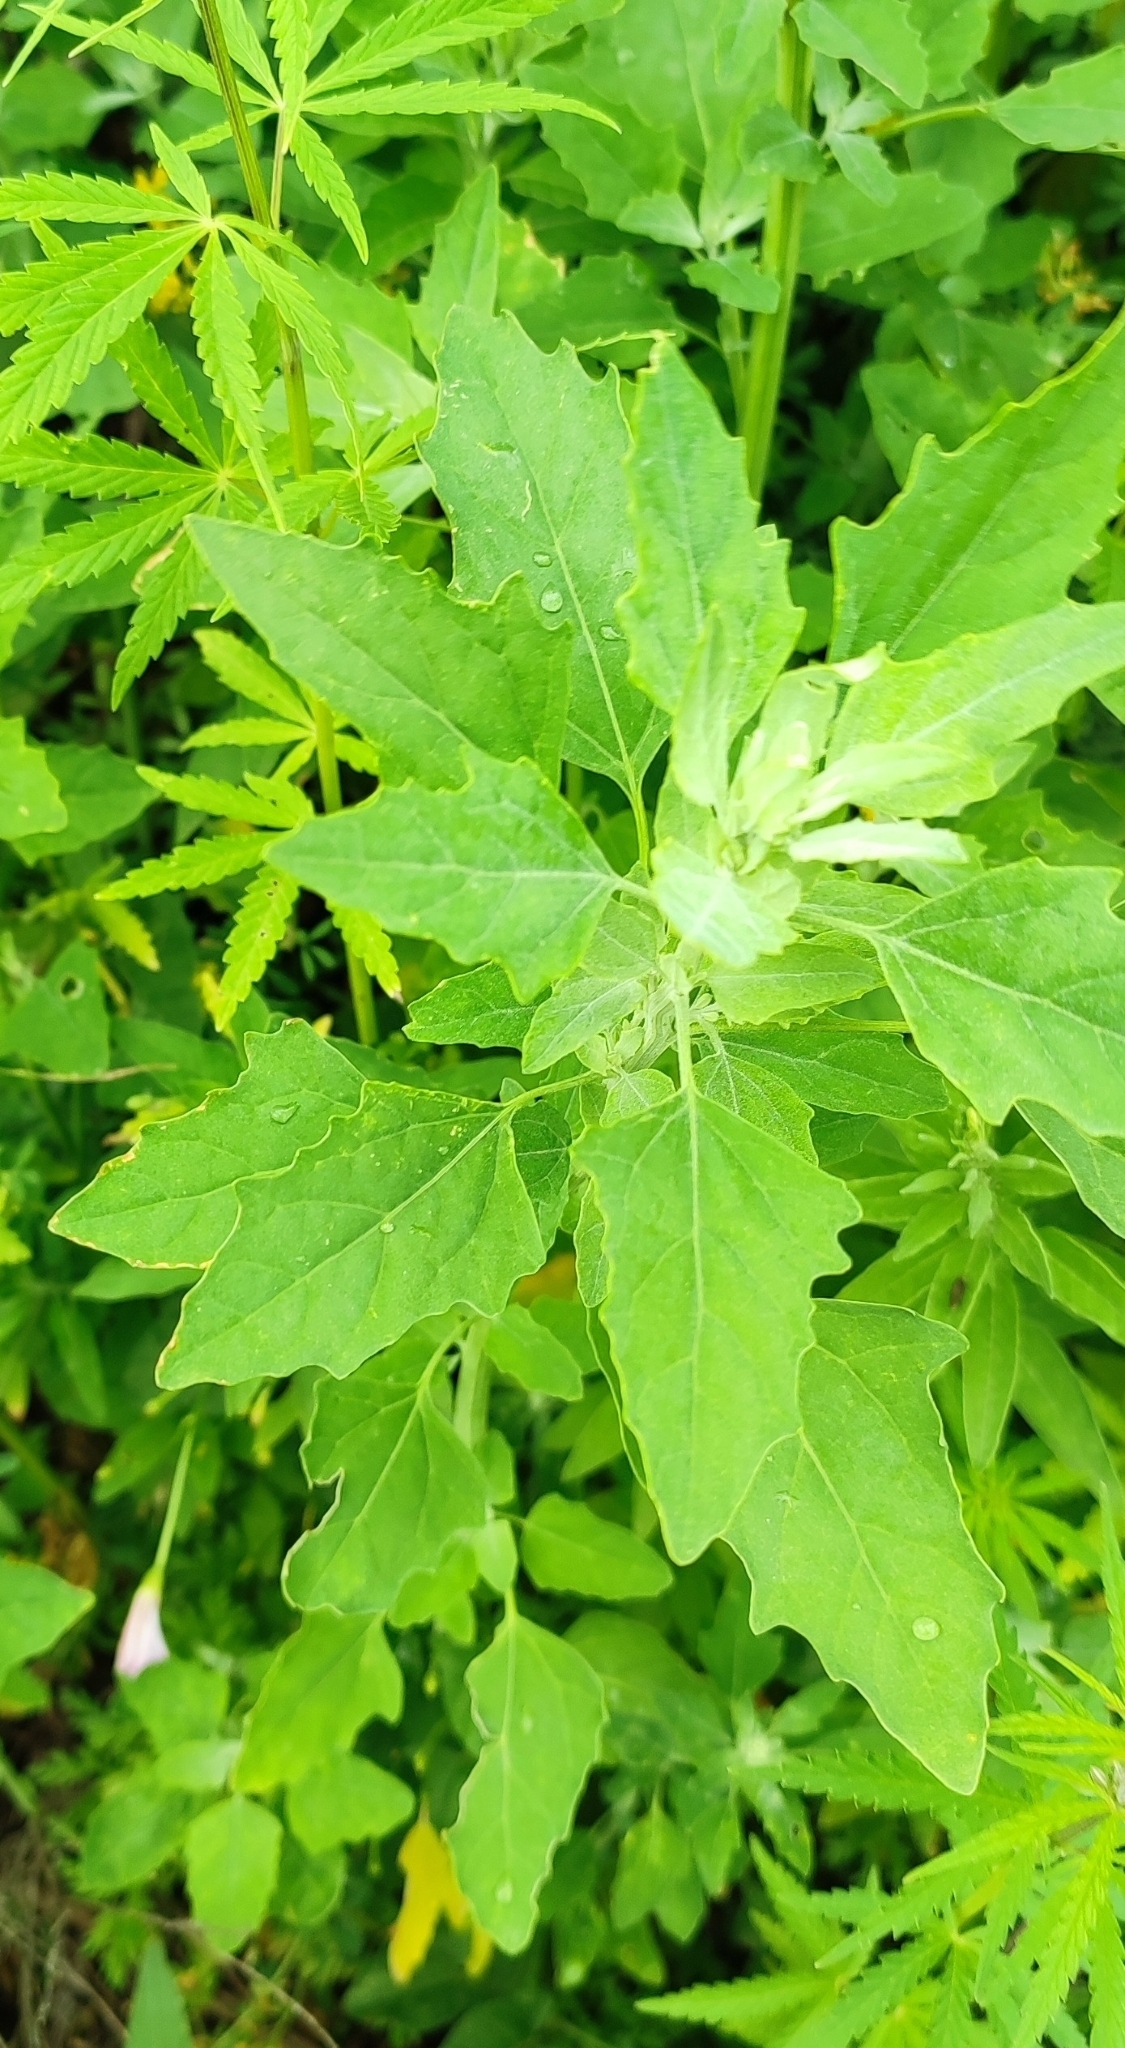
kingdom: Plantae
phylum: Tracheophyta
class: Magnoliopsida
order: Caryophyllales
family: Amaranthaceae
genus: Chenopodium
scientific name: Chenopodium album
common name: Fat-hen
